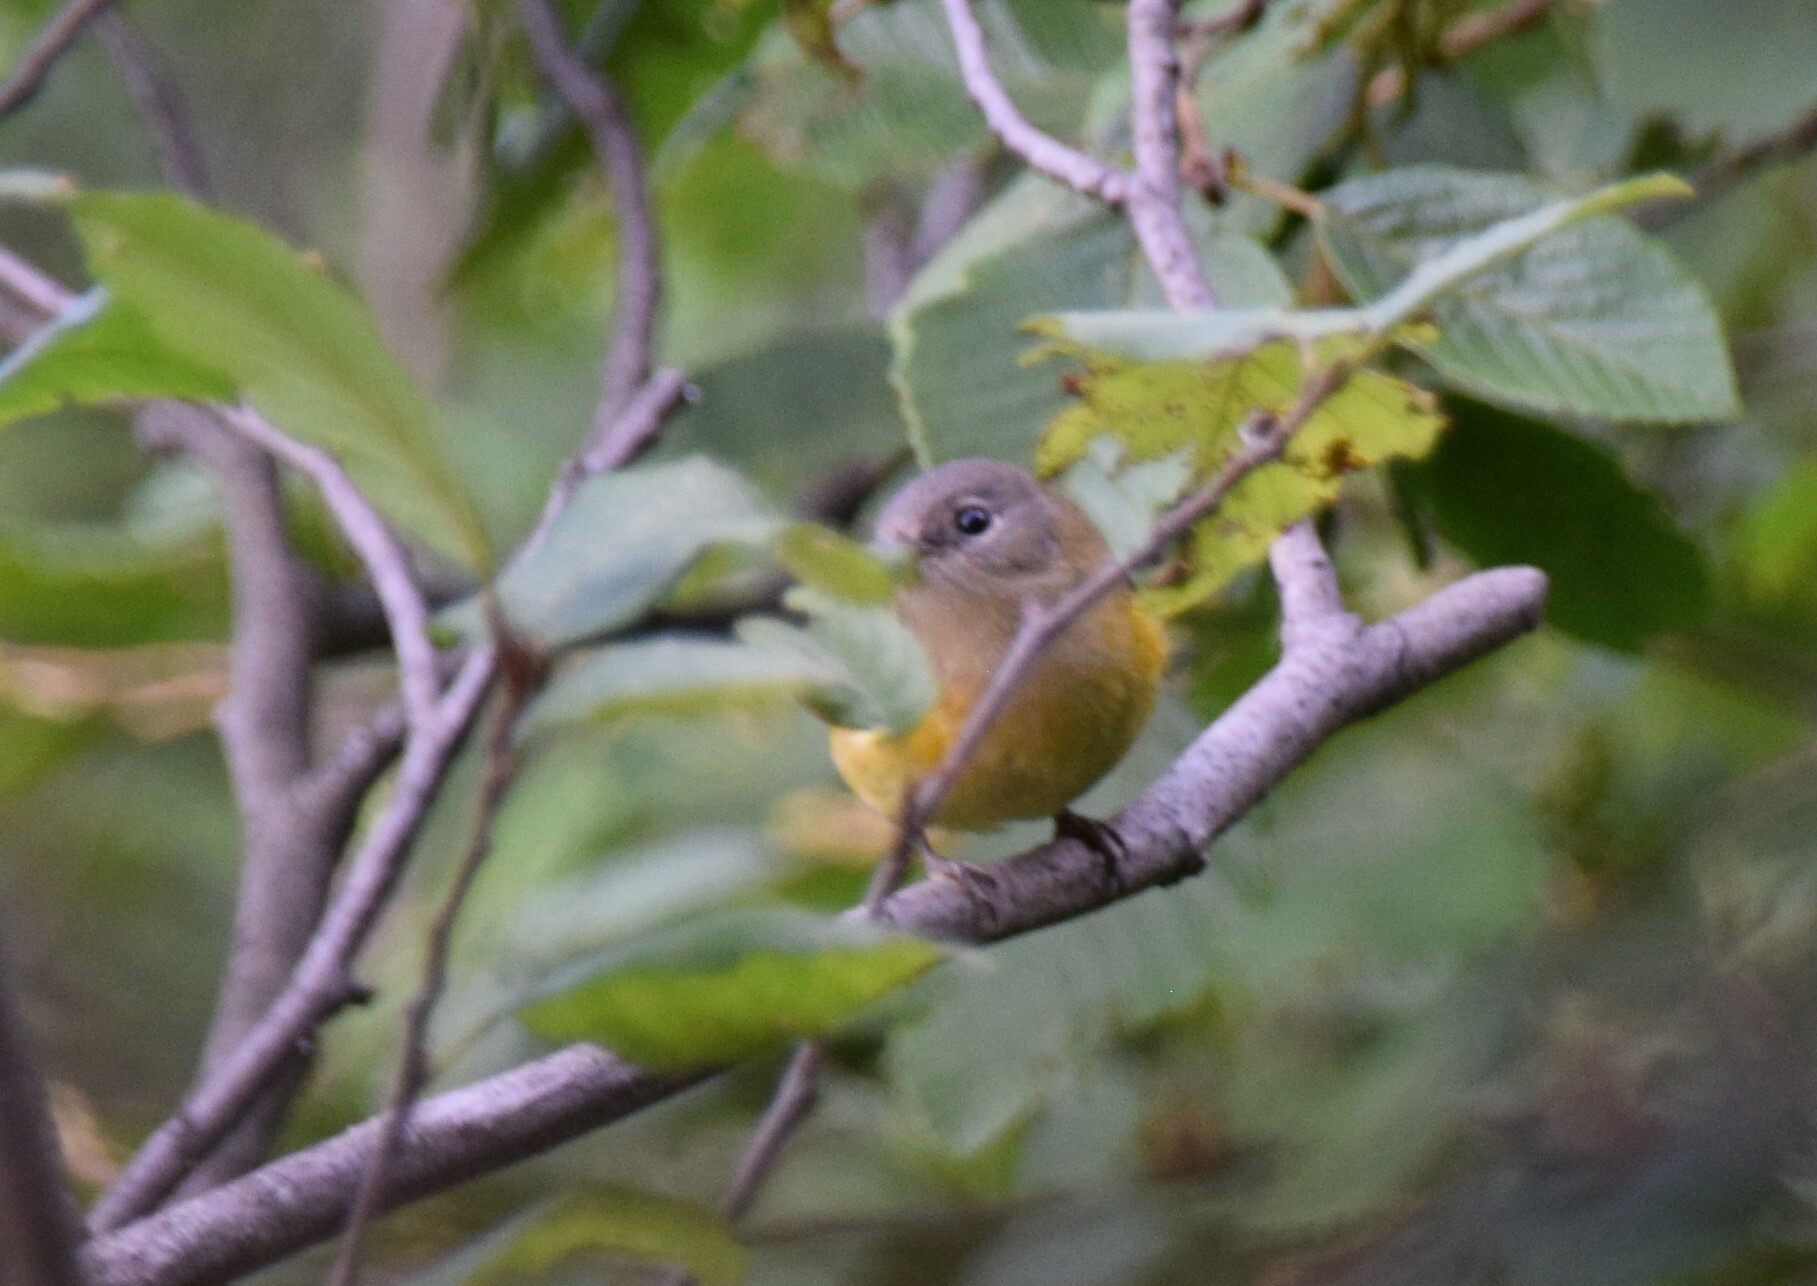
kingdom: Animalia
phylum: Chordata
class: Aves
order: Passeriformes
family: Parulidae
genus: Setophaga
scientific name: Setophaga ruticilla
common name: American redstart
